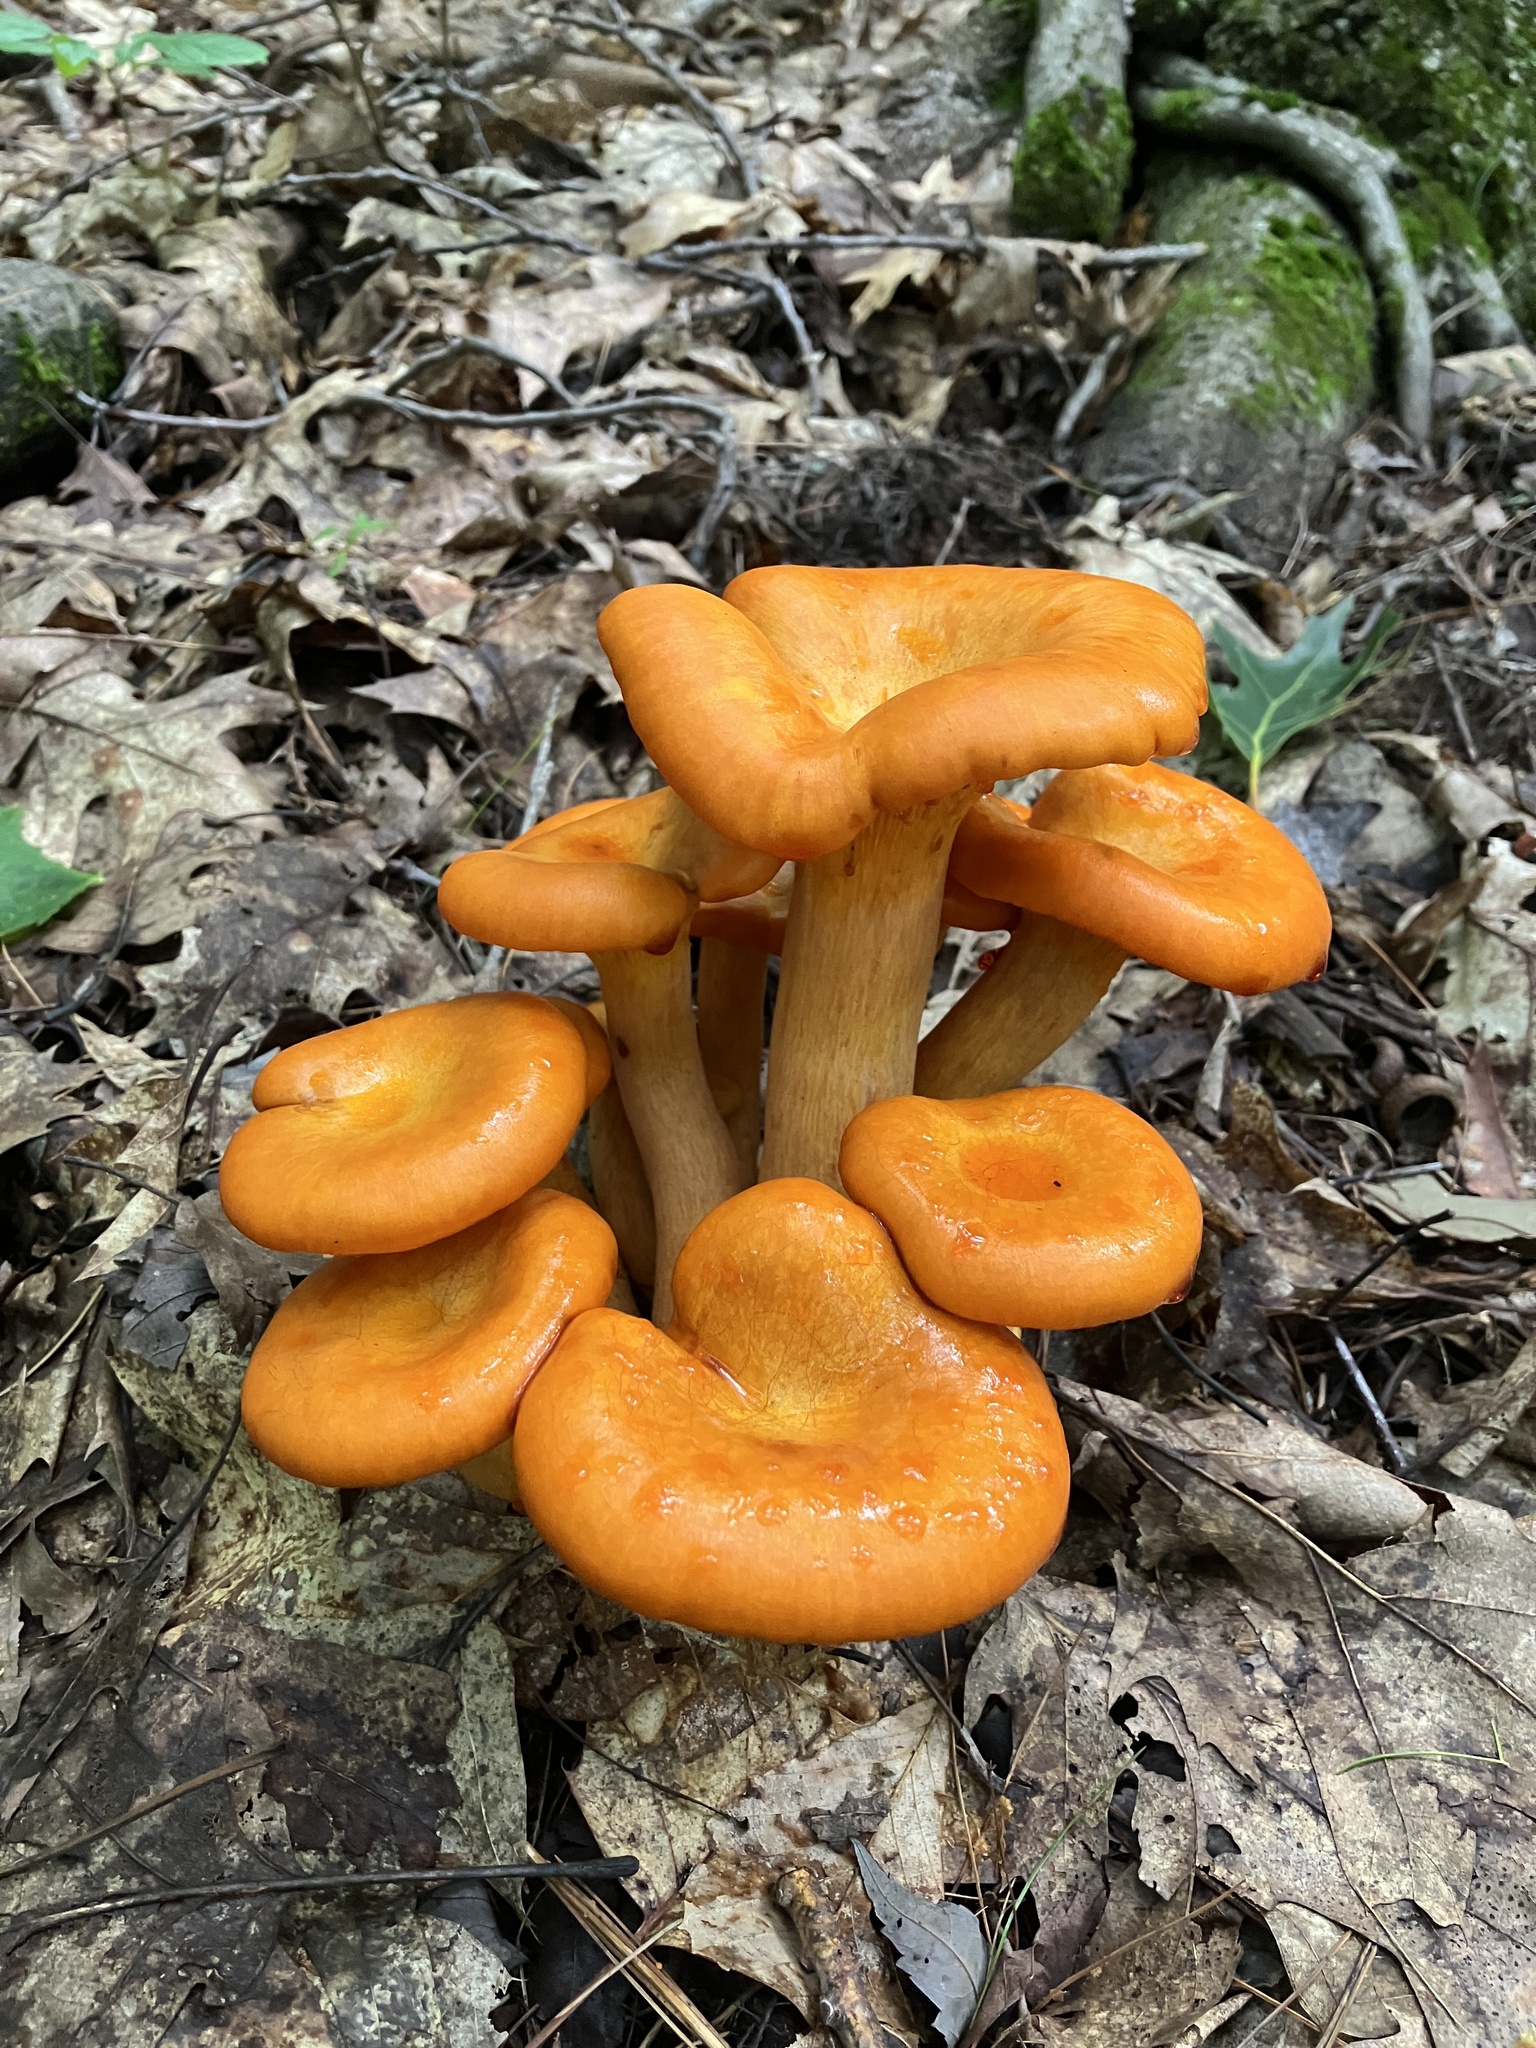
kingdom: Fungi
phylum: Basidiomycota
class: Agaricomycetes
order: Agaricales
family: Omphalotaceae
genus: Omphalotus
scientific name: Omphalotus illudens
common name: Jack o lantern
